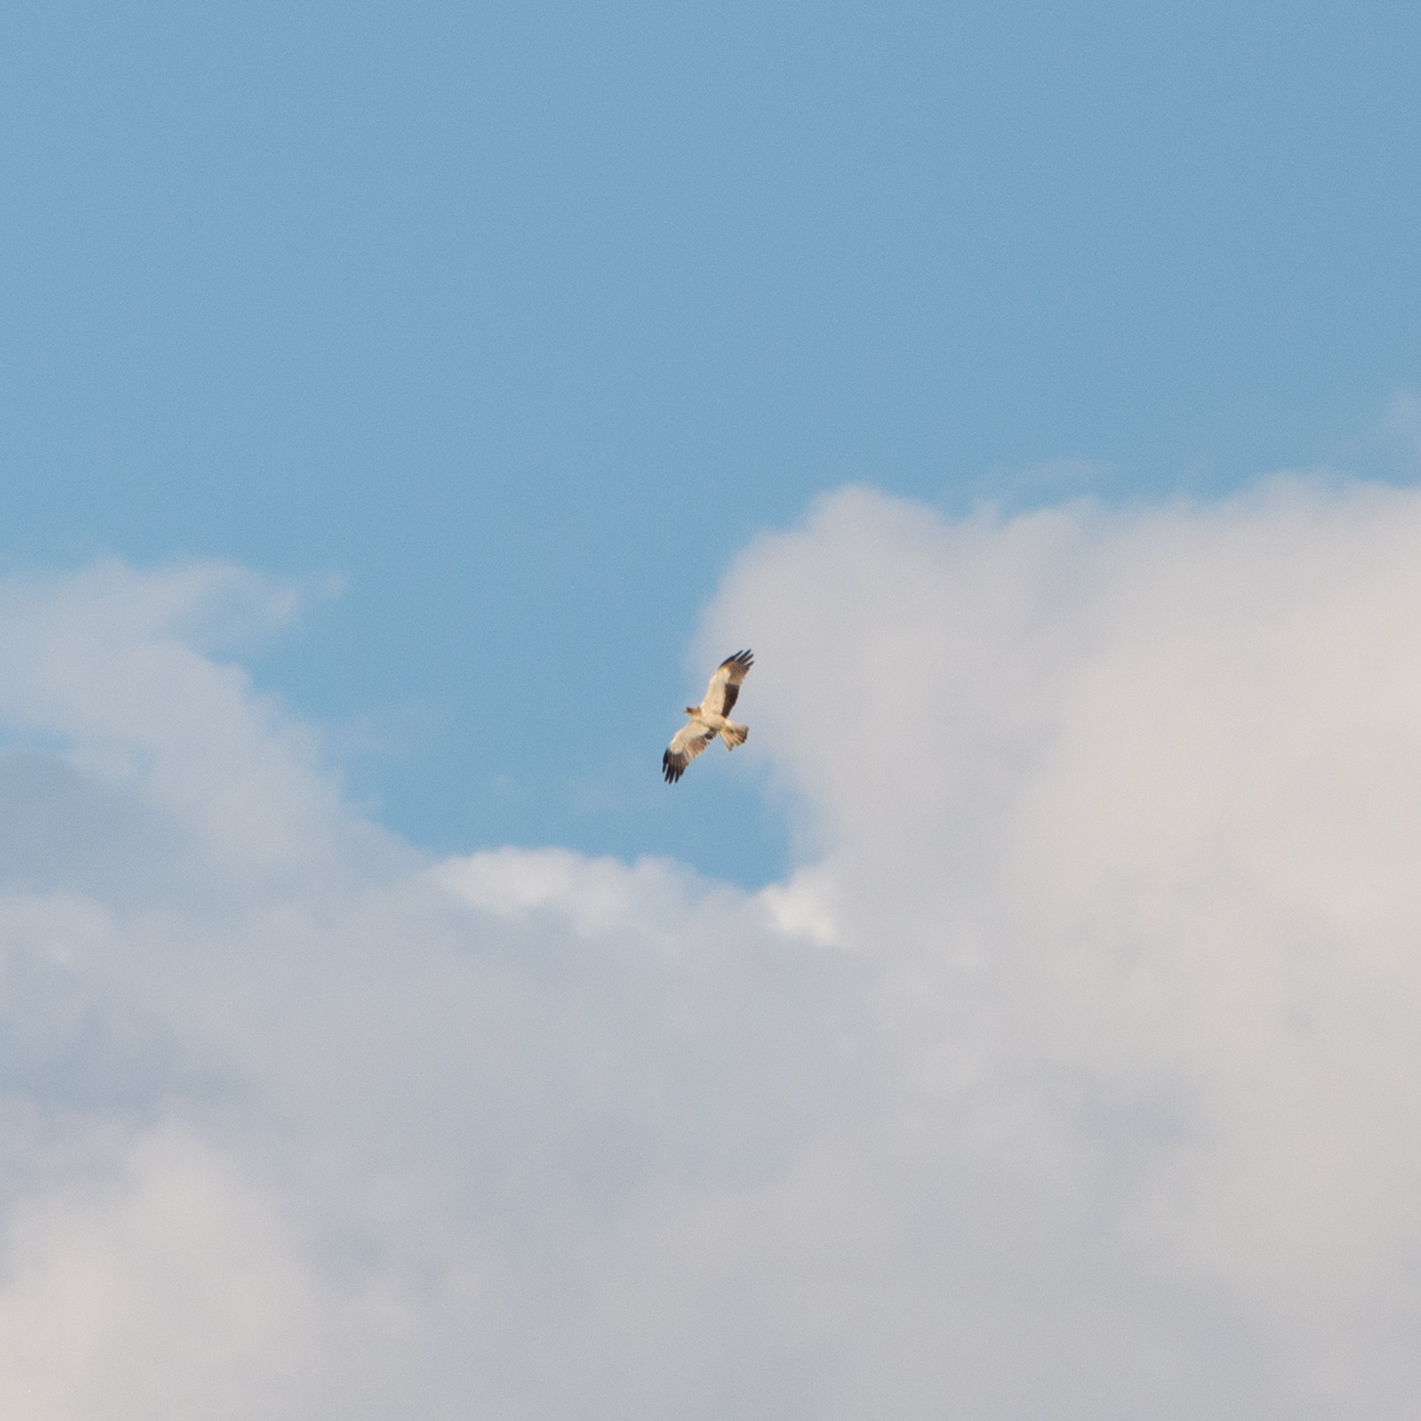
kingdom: Animalia
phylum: Chordata
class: Aves
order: Accipitriformes
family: Accipitridae
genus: Hieraaetus
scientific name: Hieraaetus pennatus
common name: Booted eagle
